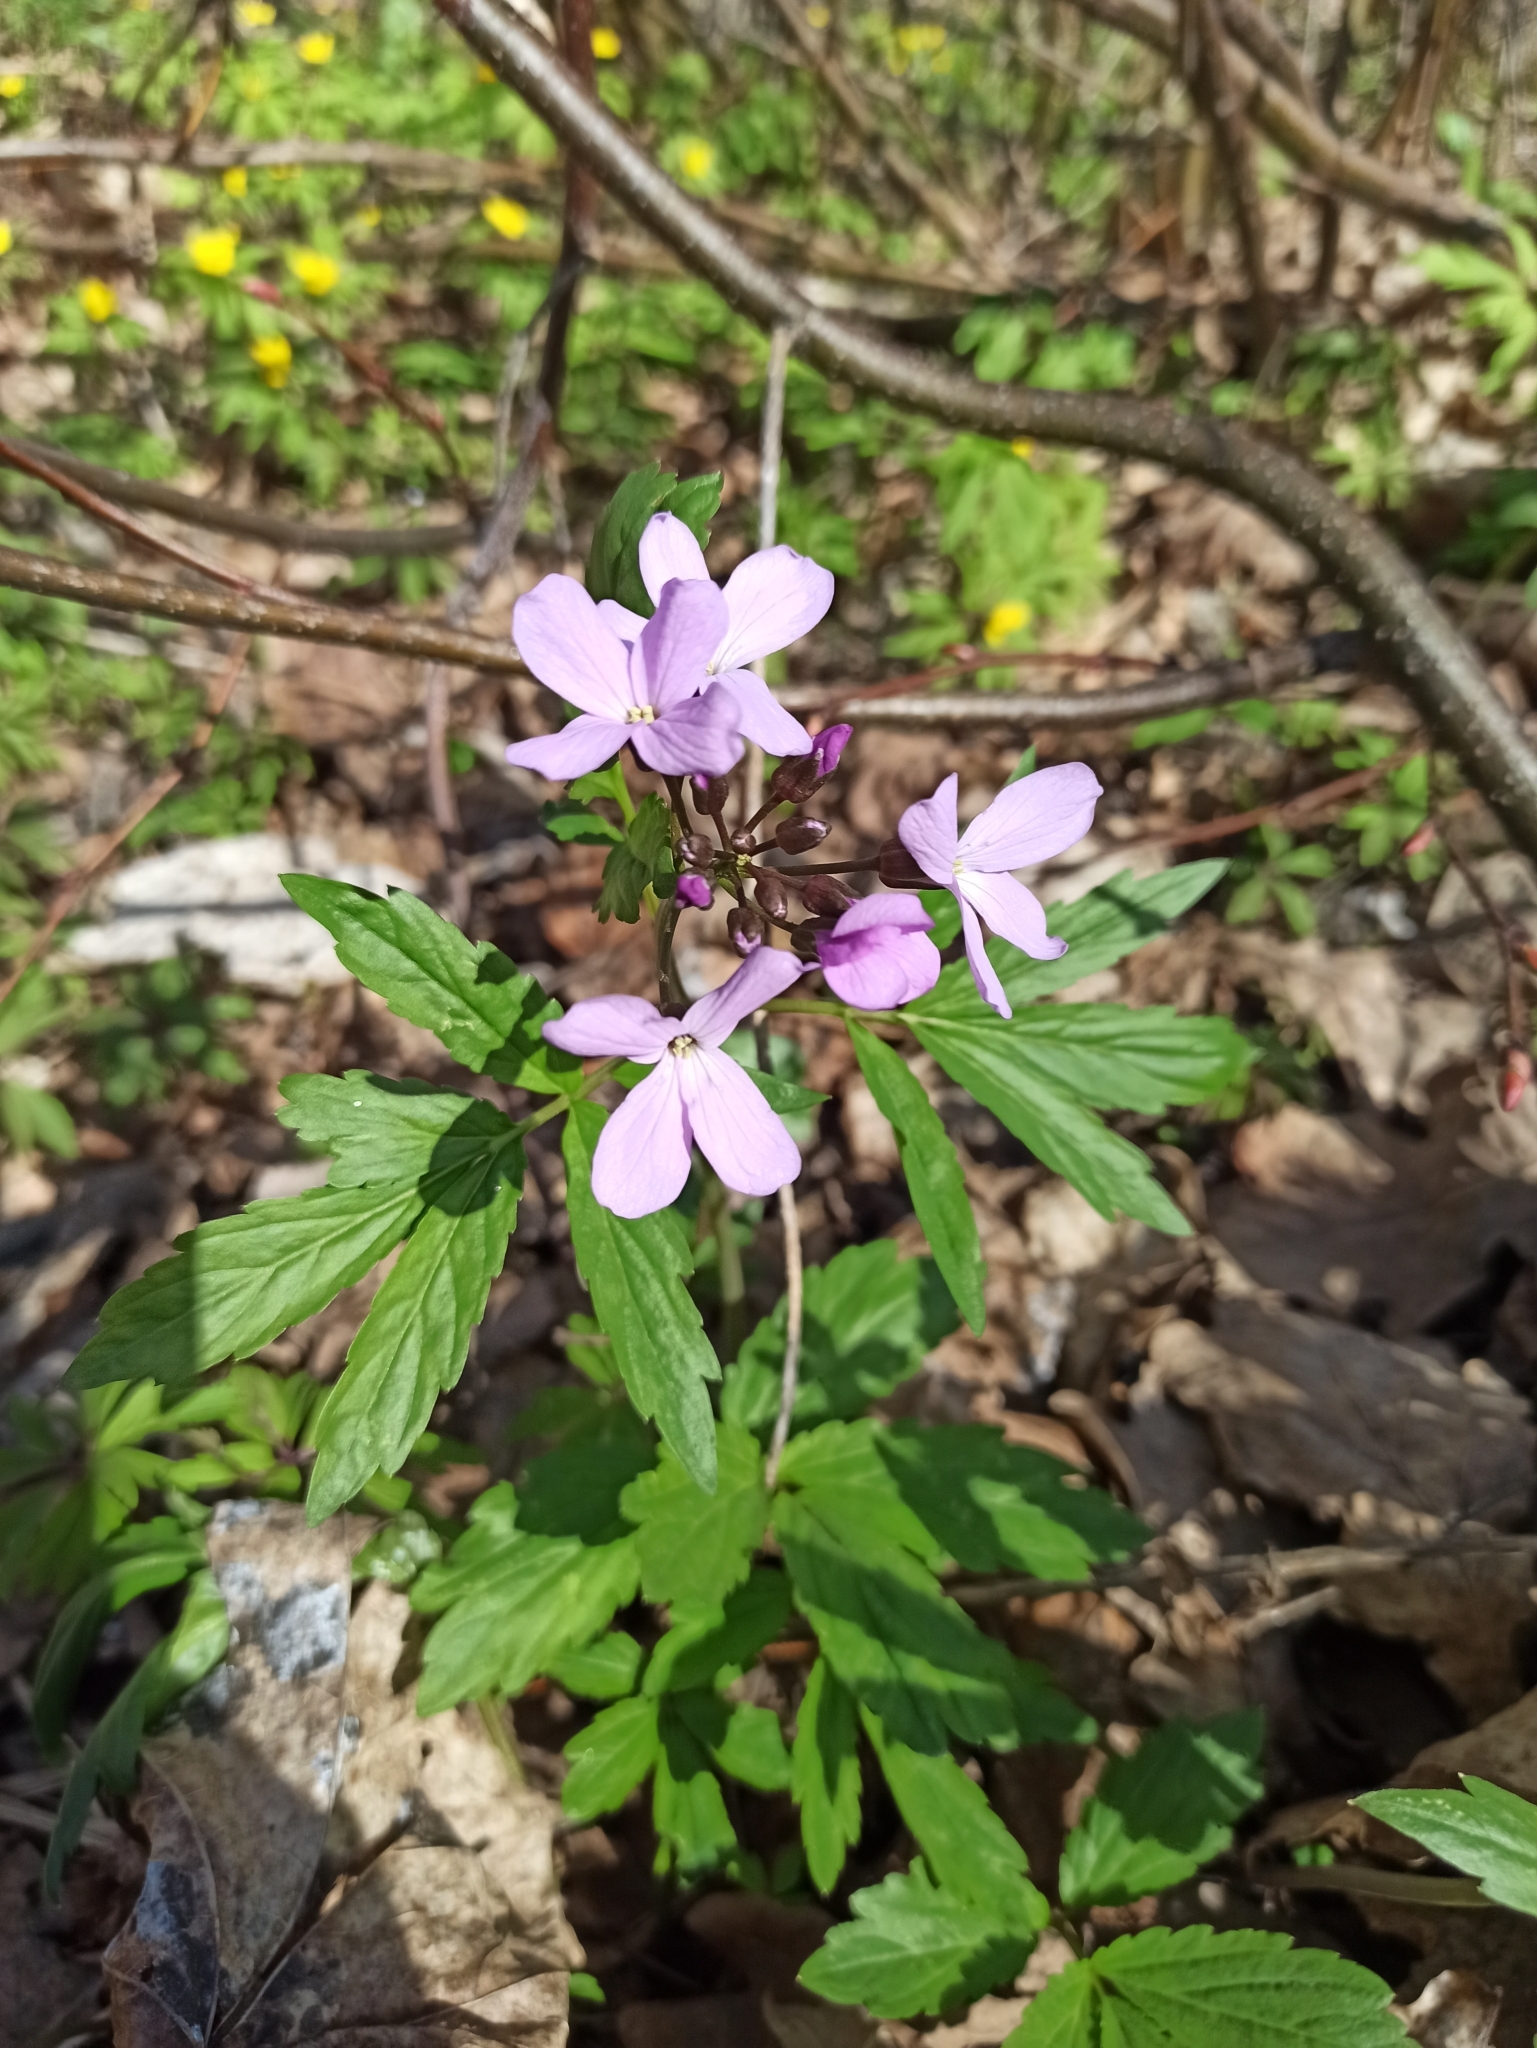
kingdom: Plantae
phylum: Tracheophyta
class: Magnoliopsida
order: Brassicales
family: Brassicaceae
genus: Cardamine
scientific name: Cardamine quinquefolia
